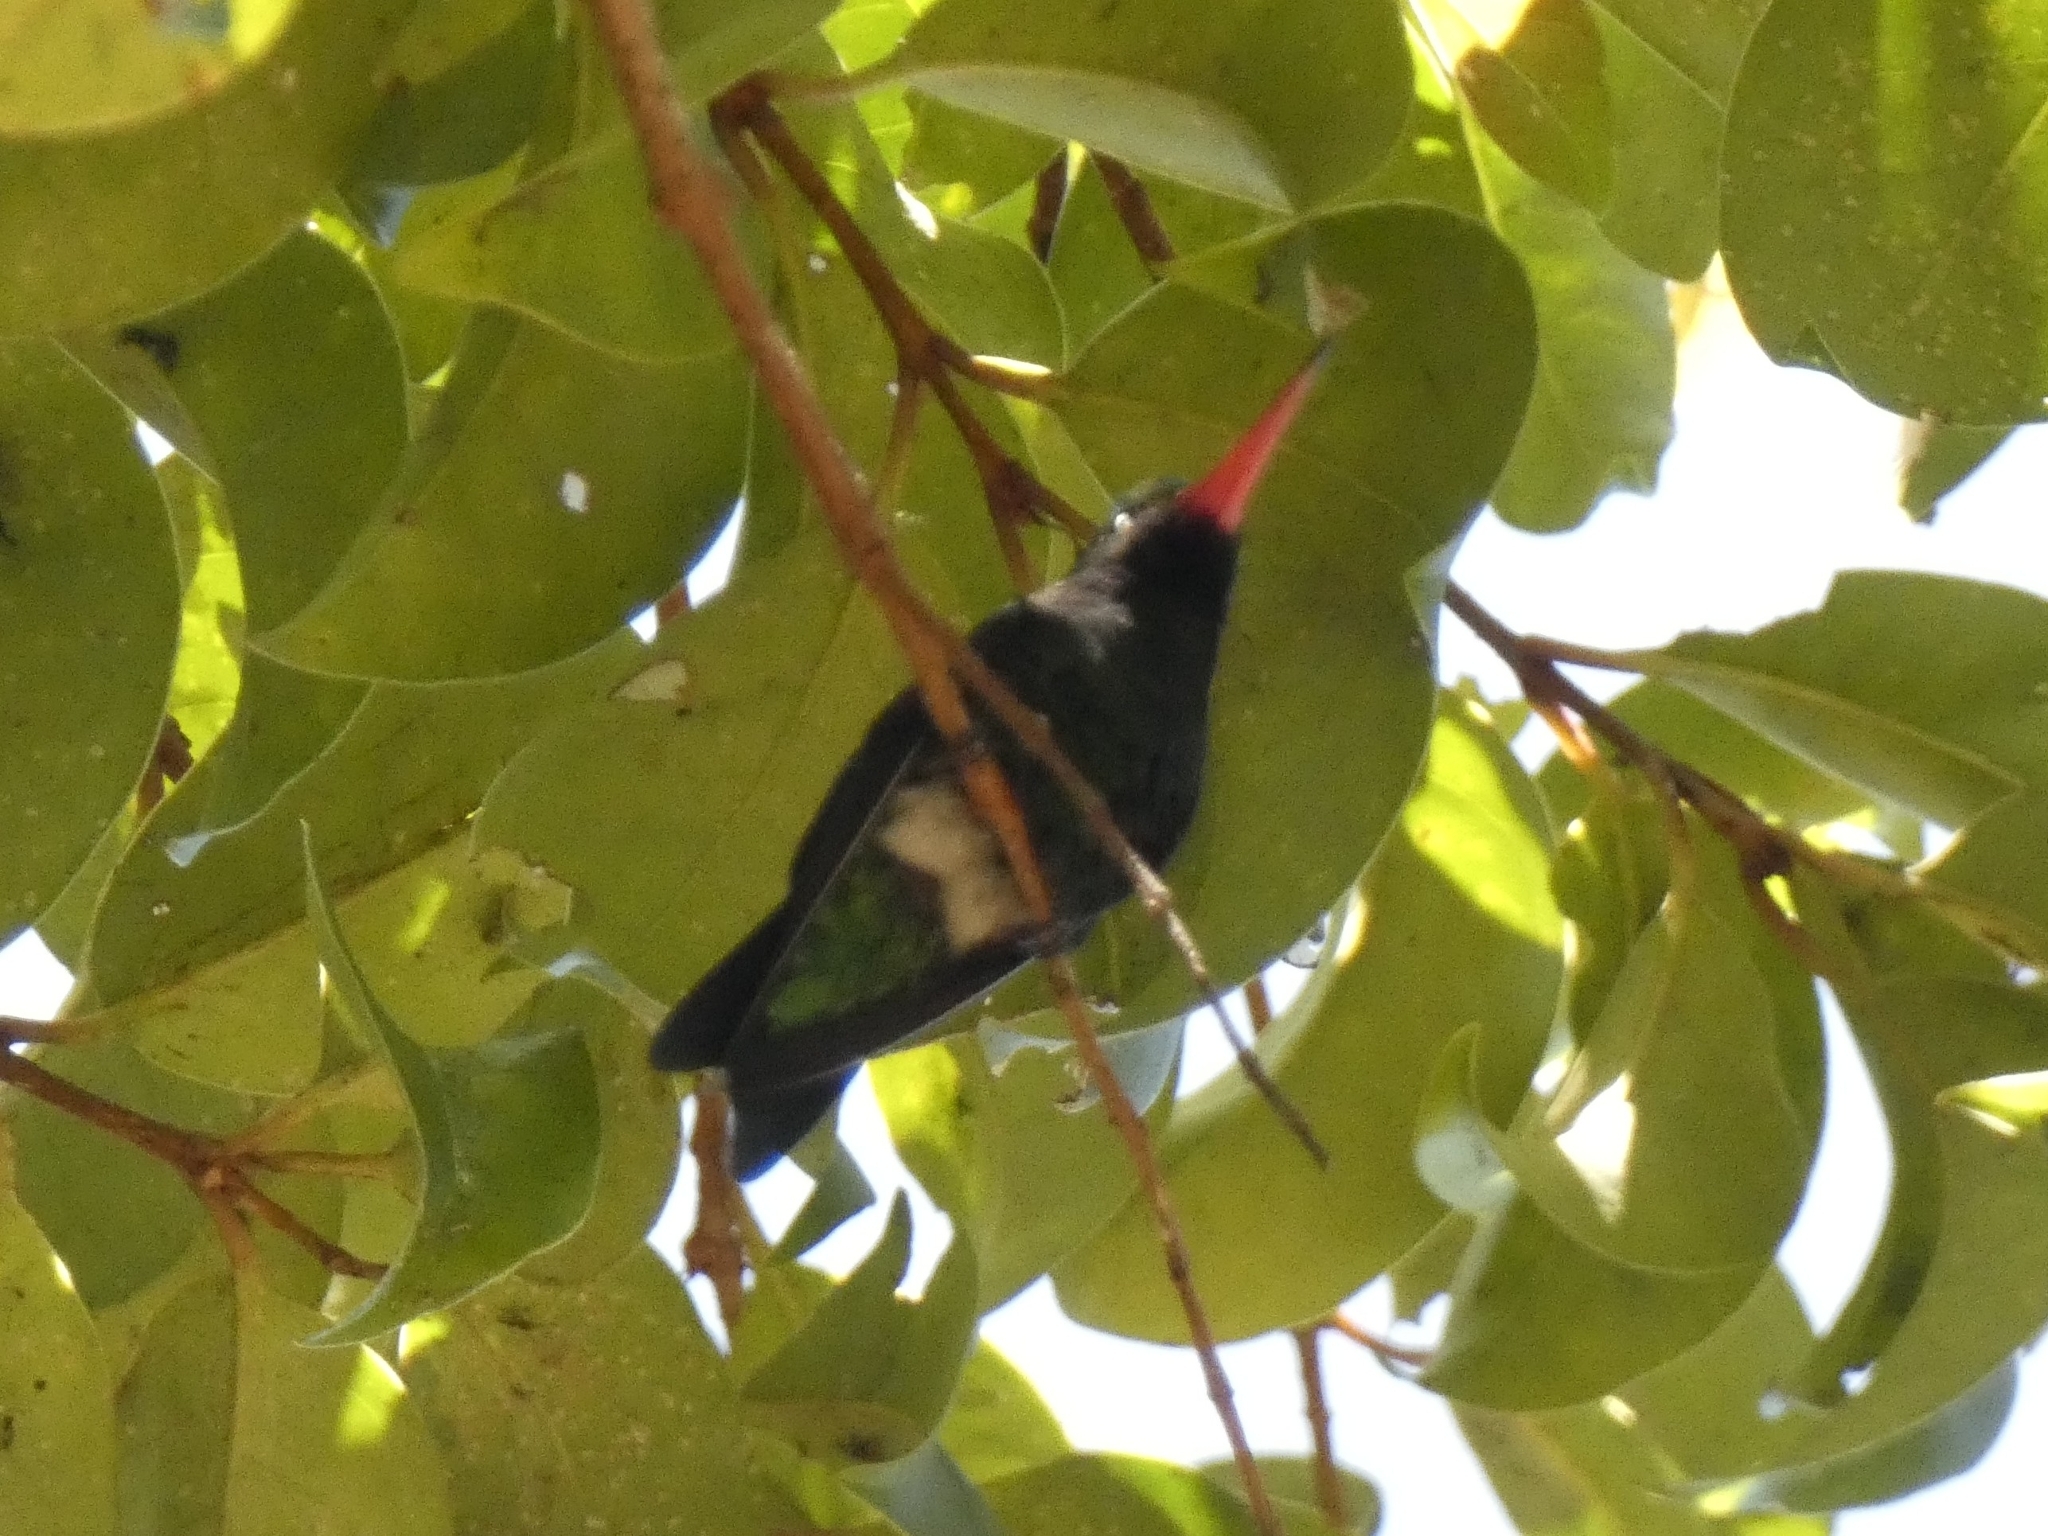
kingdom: Animalia
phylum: Chordata
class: Aves
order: Apodiformes
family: Trochilidae
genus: Chlorostilbon
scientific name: Chlorostilbon lucidus
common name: Glittering-bellied emerald
